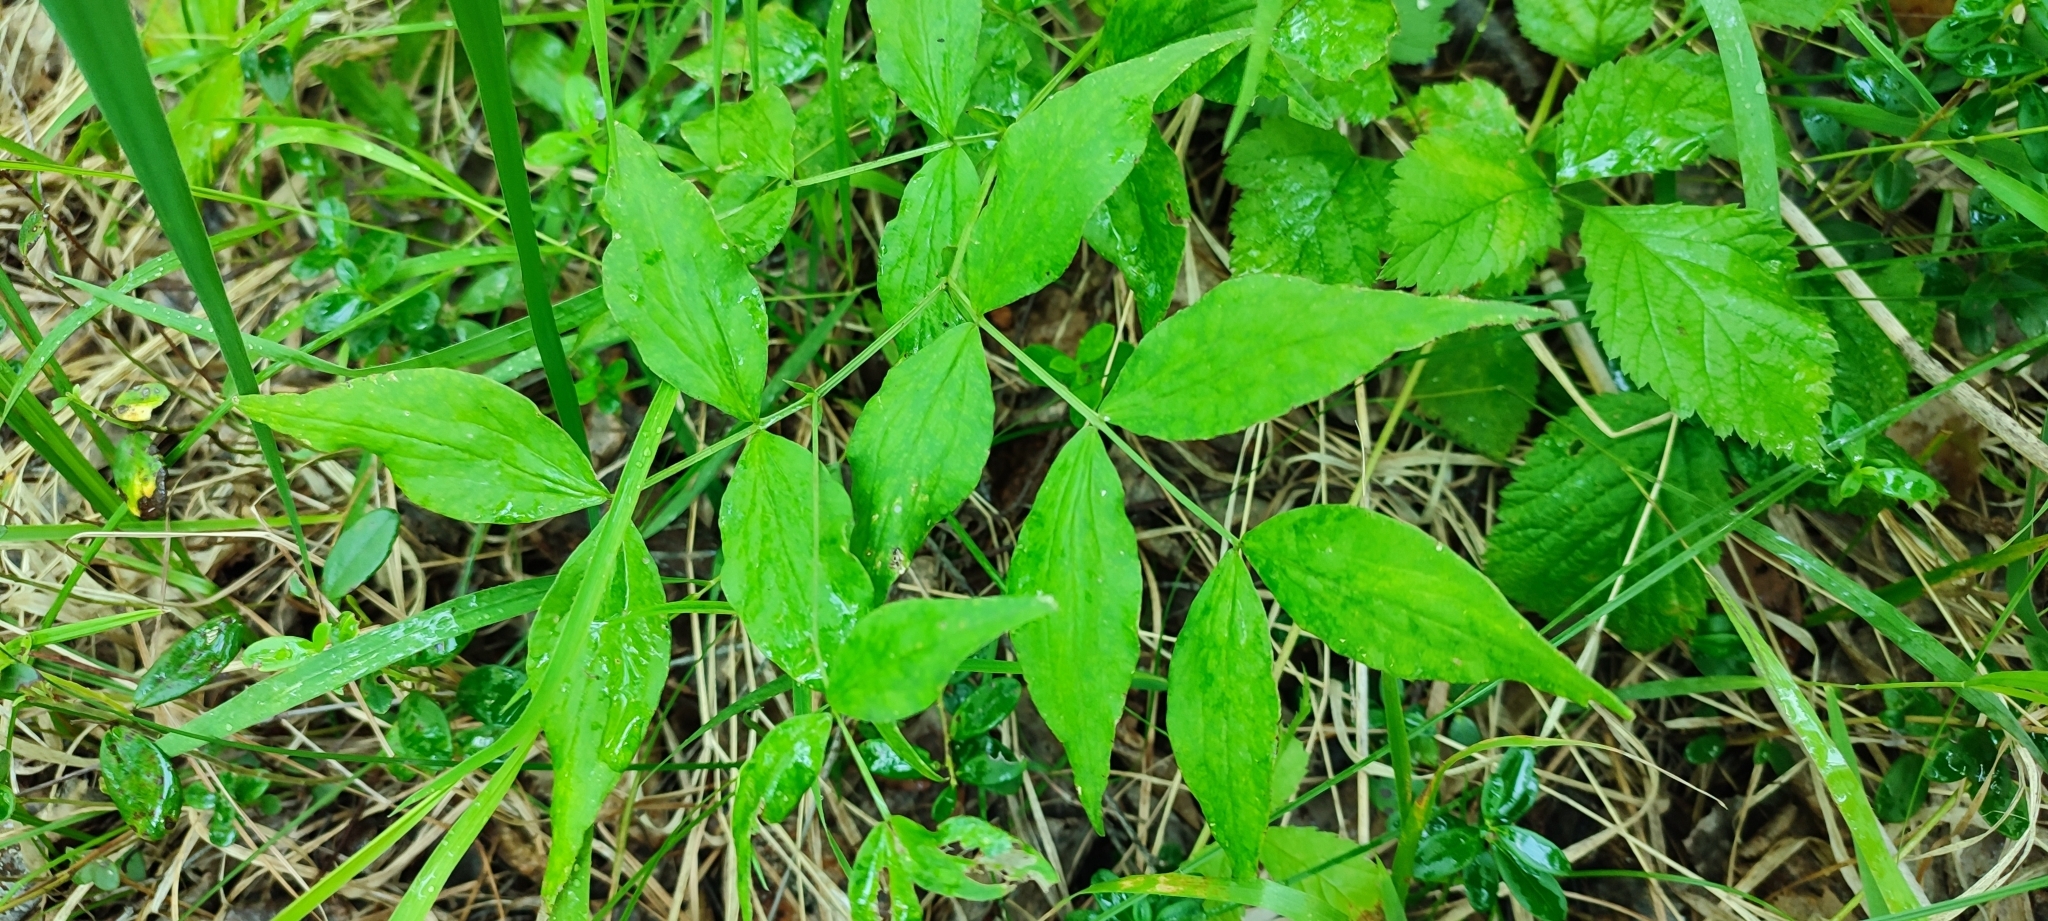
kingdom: Plantae
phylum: Tracheophyta
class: Magnoliopsida
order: Fabales
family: Fabaceae
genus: Lathyrus
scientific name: Lathyrus vernus
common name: Spring pea
